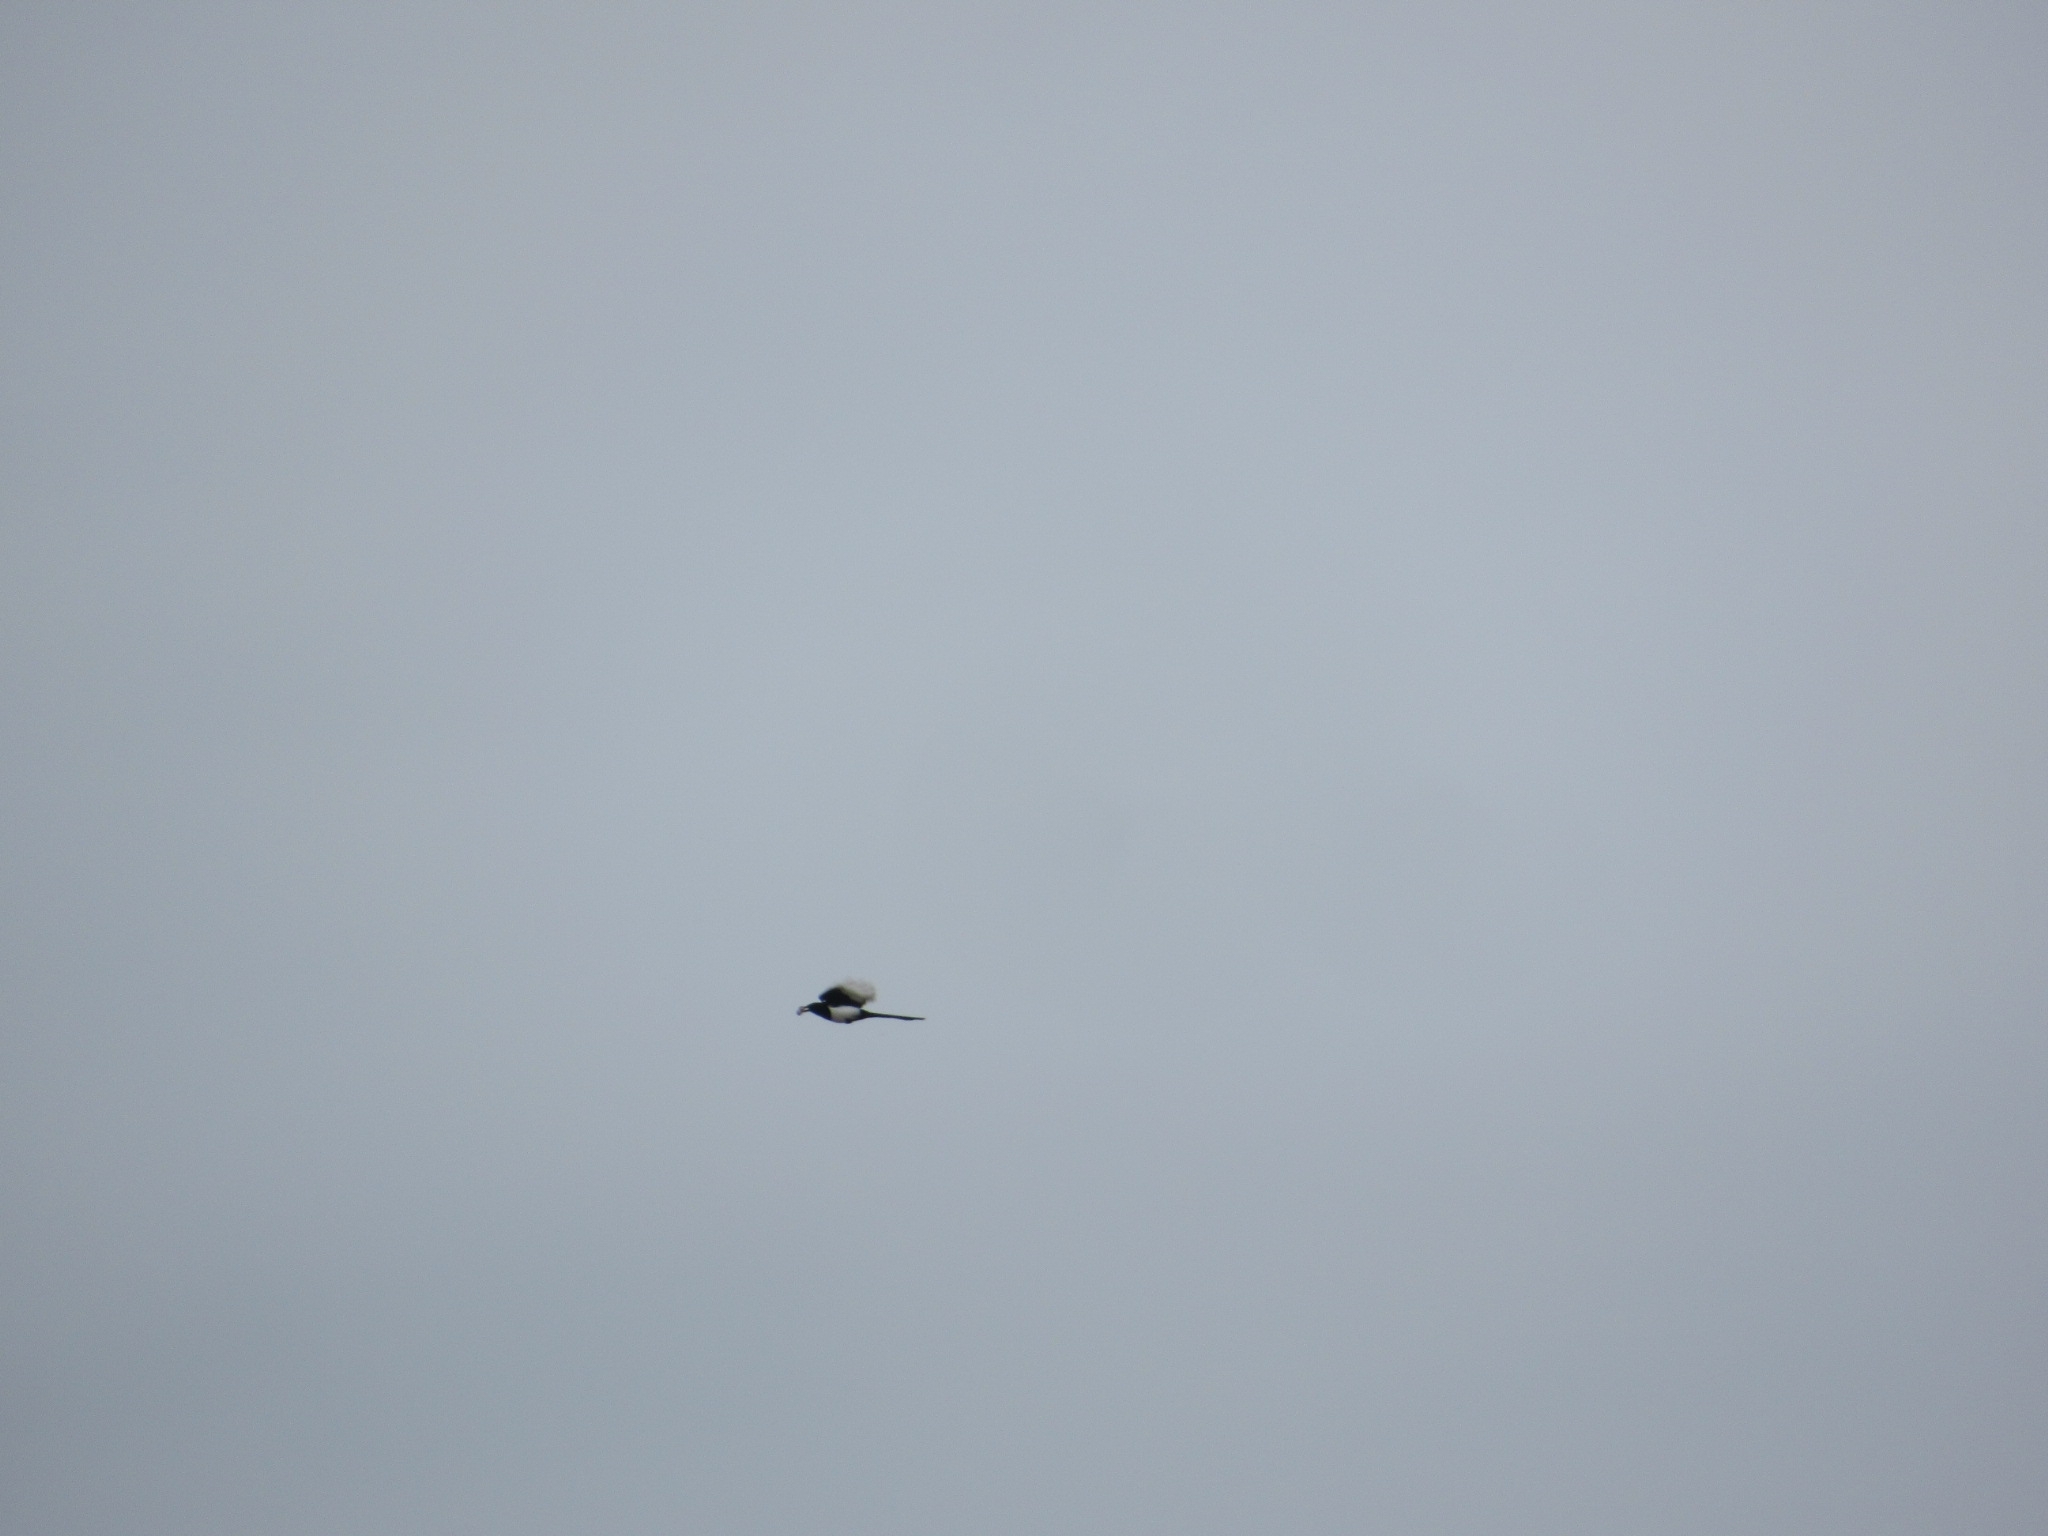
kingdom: Animalia
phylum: Chordata
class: Aves
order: Passeriformes
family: Corvidae
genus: Pica
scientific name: Pica pica
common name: Eurasian magpie
